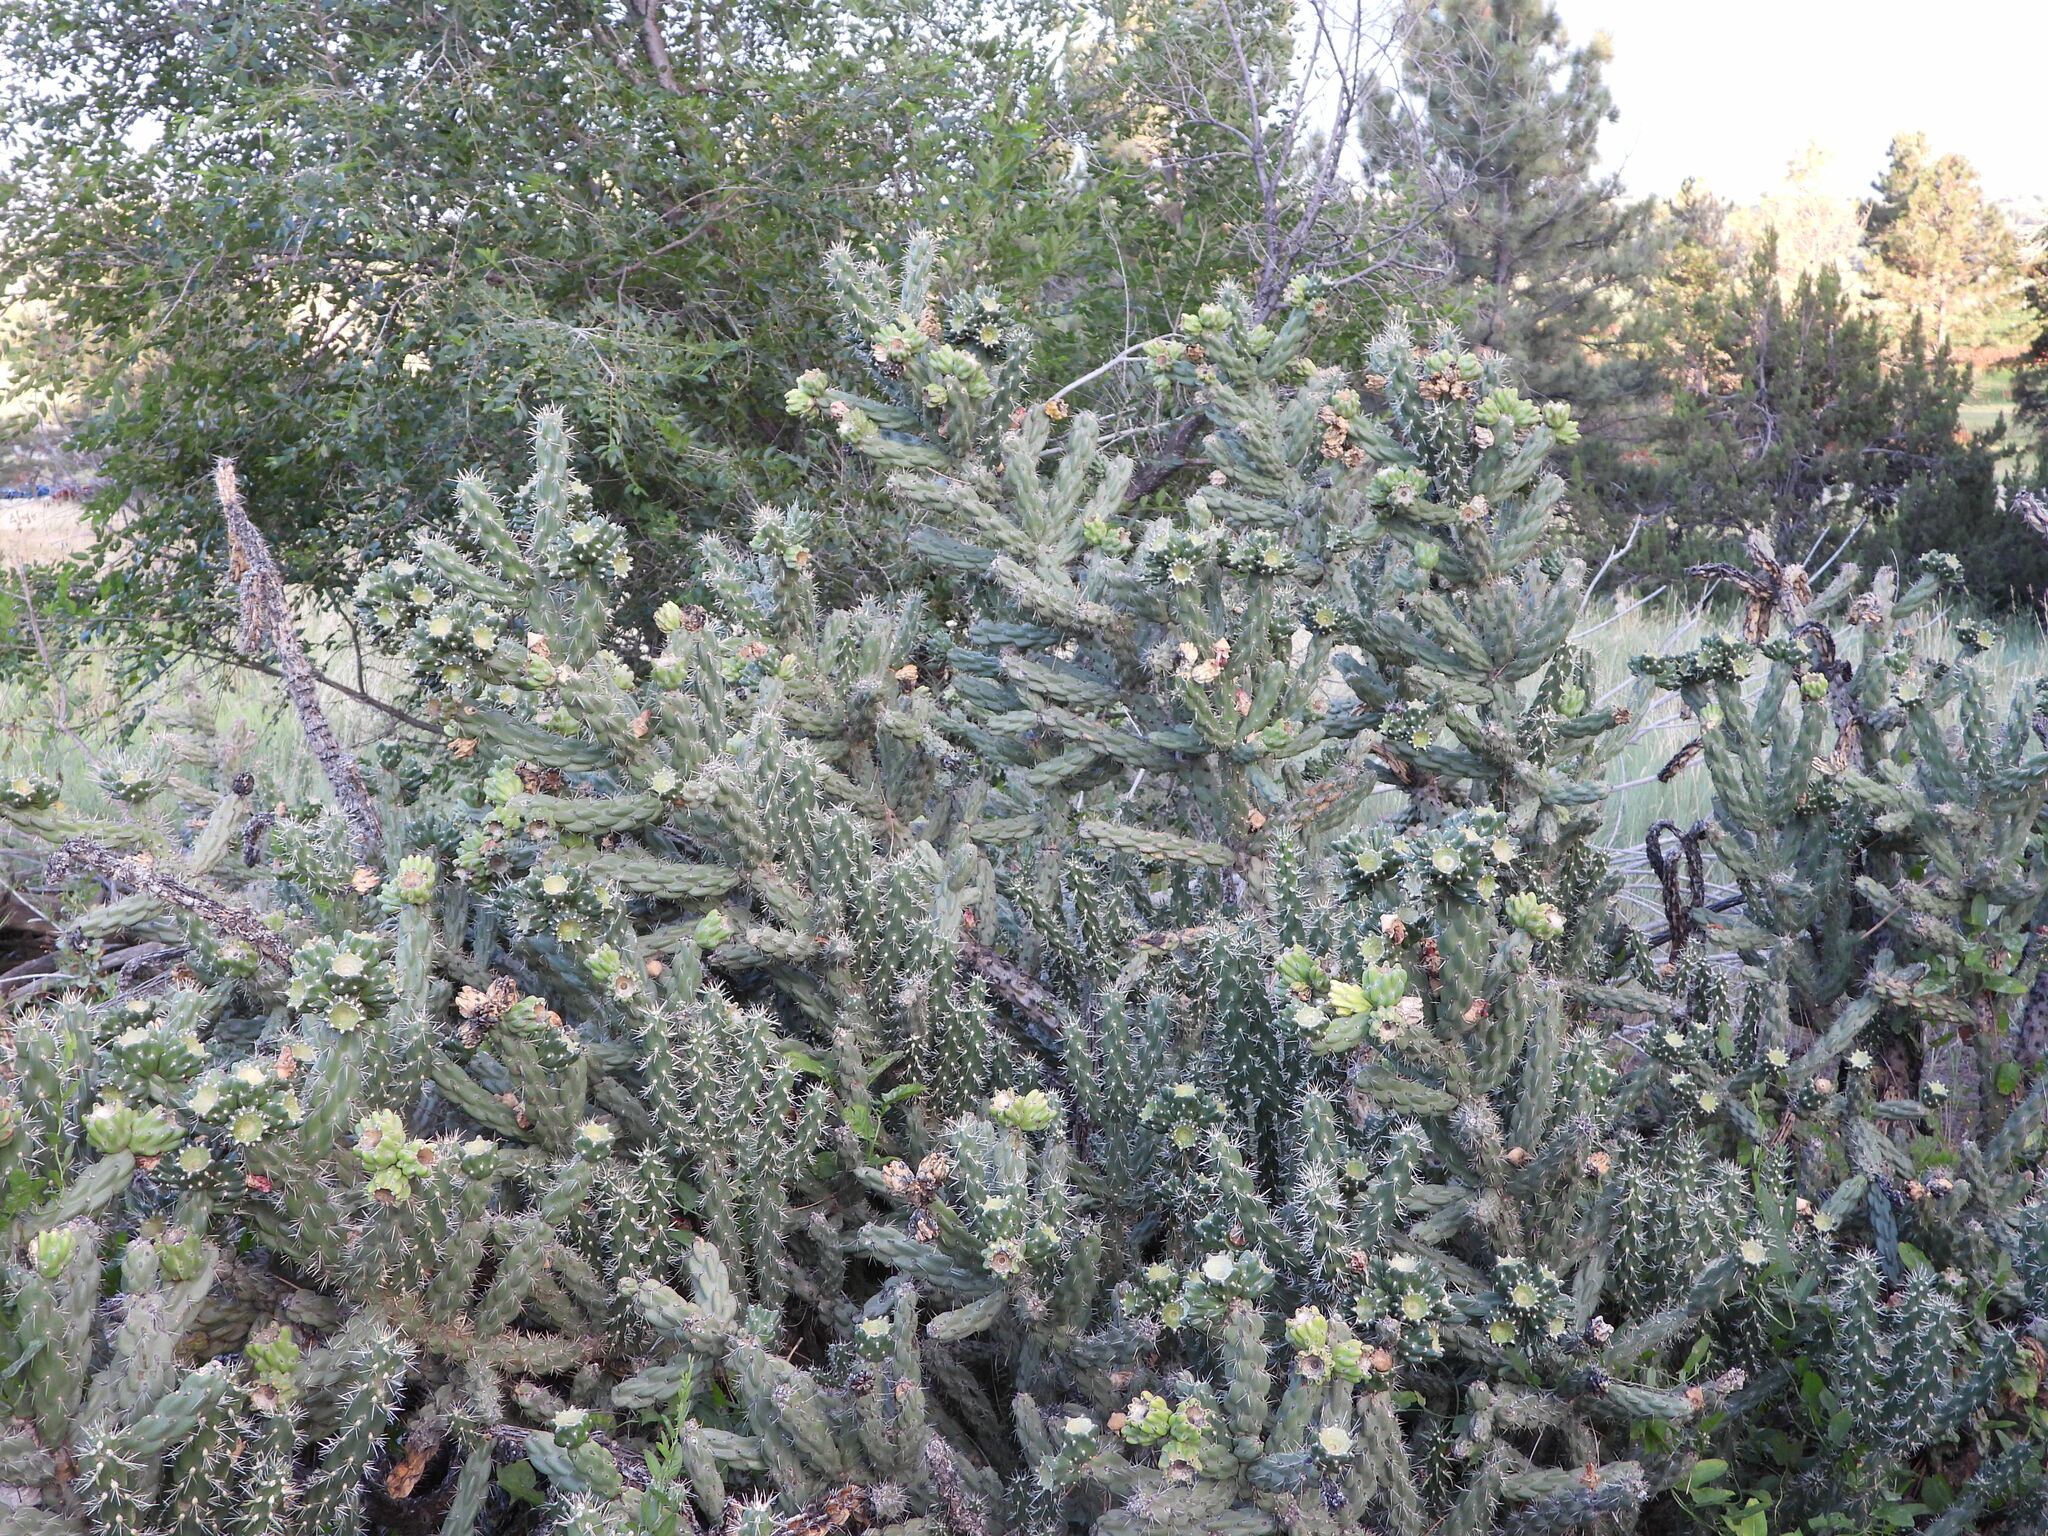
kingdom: Plantae
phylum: Tracheophyta
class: Magnoliopsida
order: Caryophyllales
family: Cactaceae
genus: Cylindropuntia
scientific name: Cylindropuntia imbricata
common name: Candelabrum cactus
